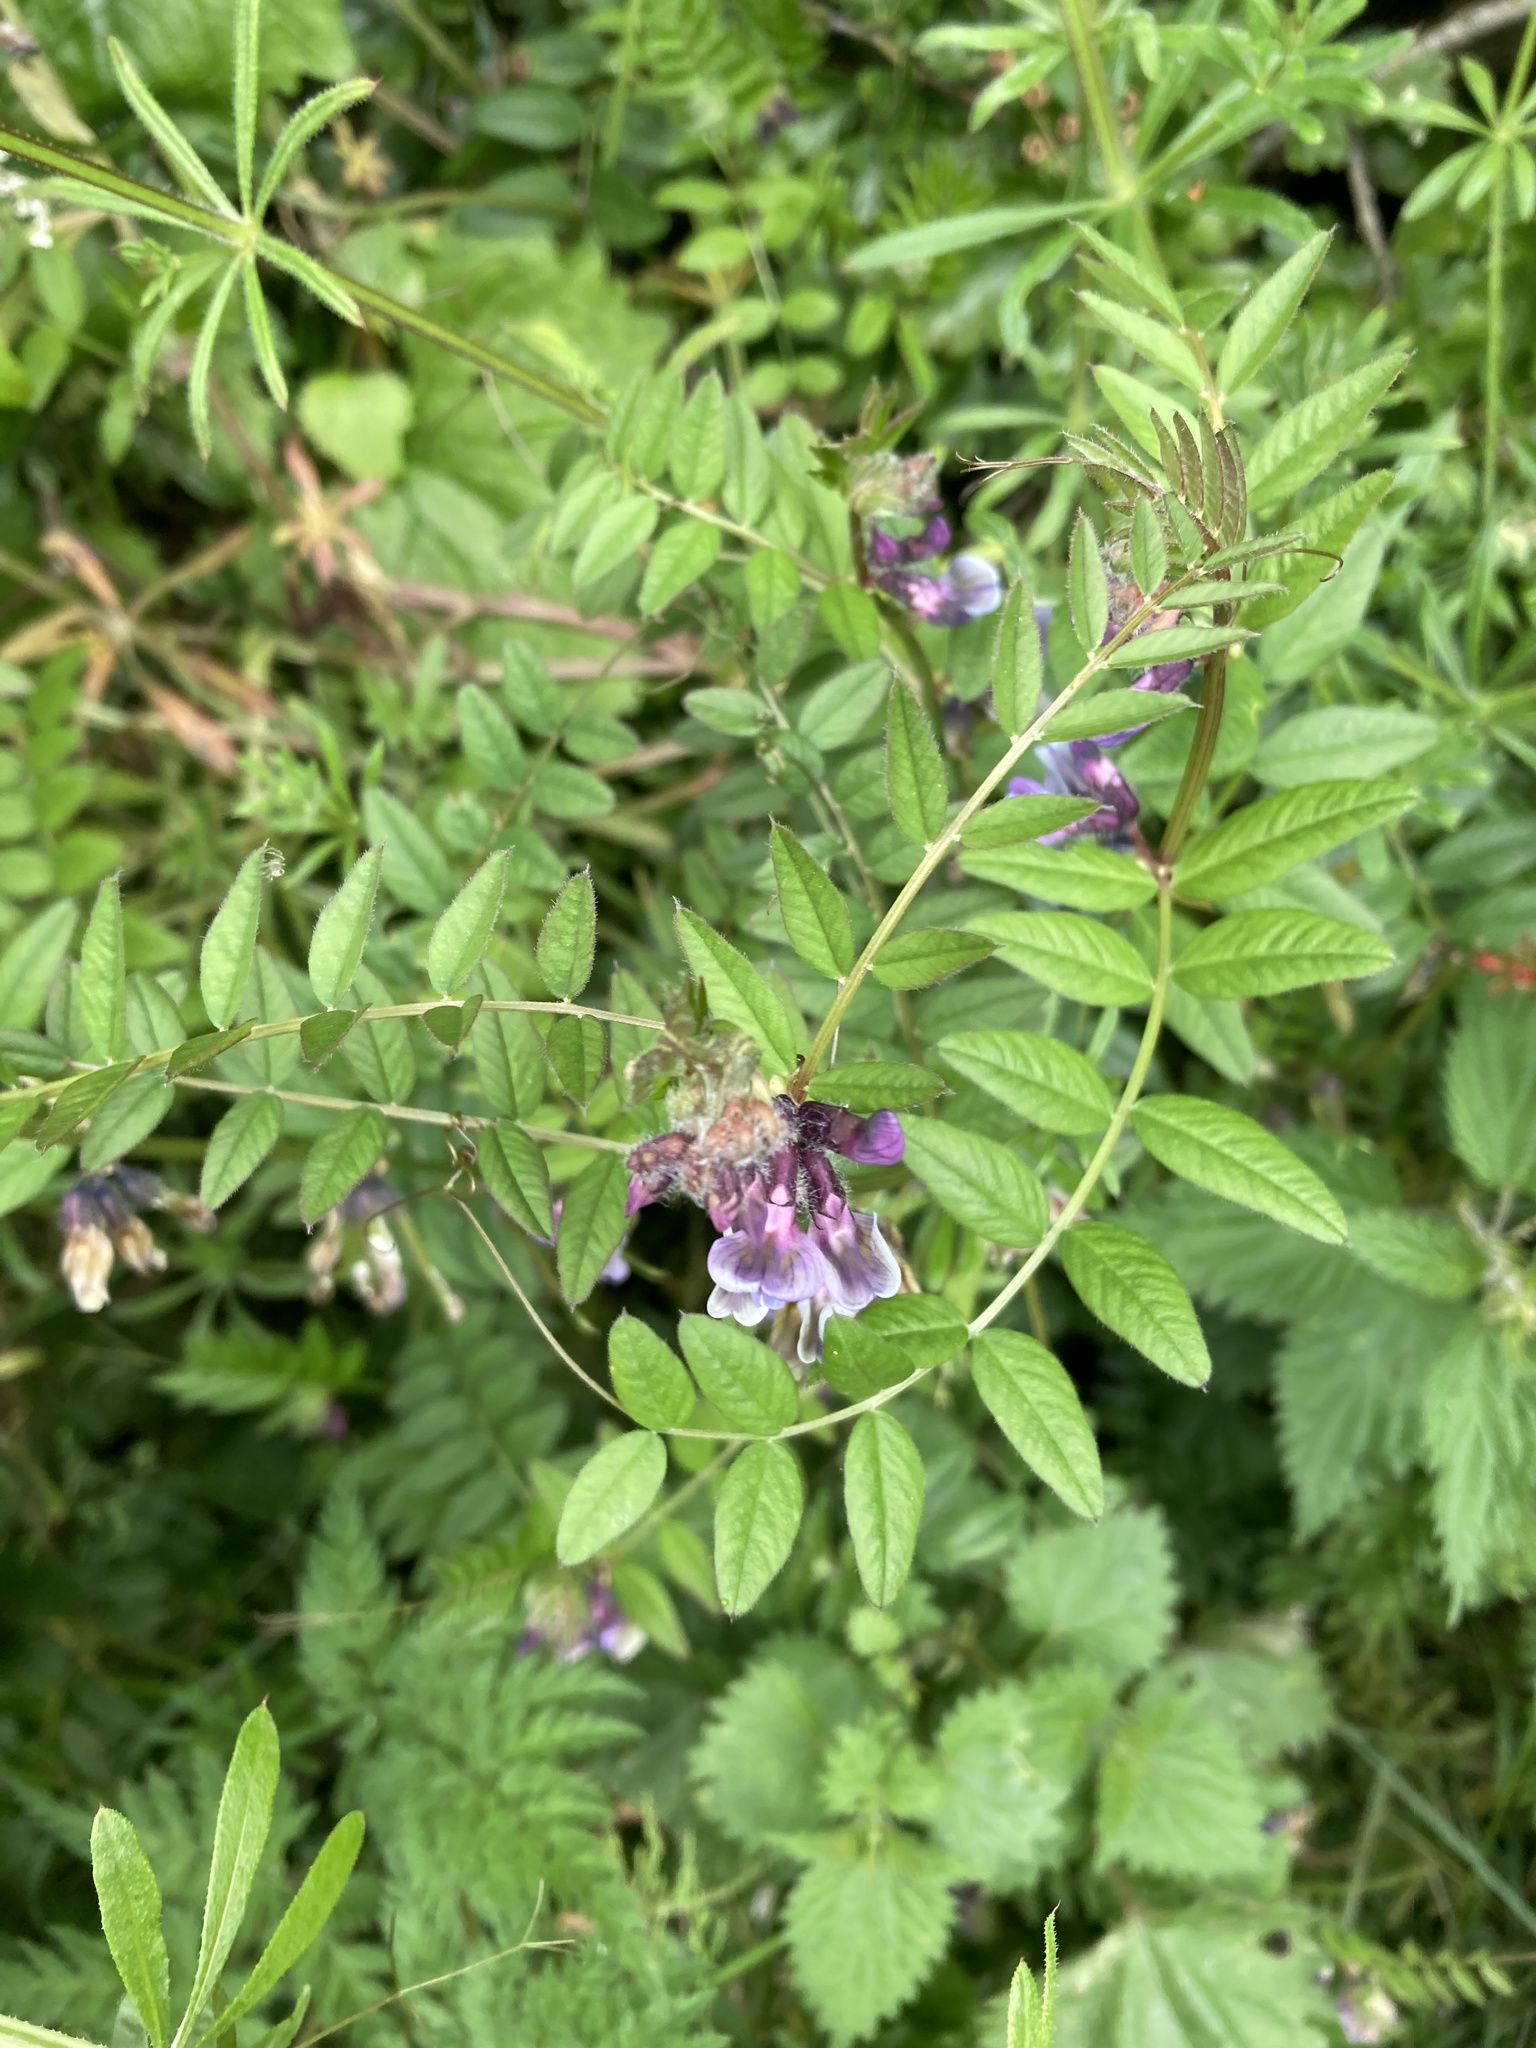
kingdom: Plantae
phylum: Tracheophyta
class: Magnoliopsida
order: Fabales
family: Fabaceae
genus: Vicia
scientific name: Vicia sepium
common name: Bush vetch
